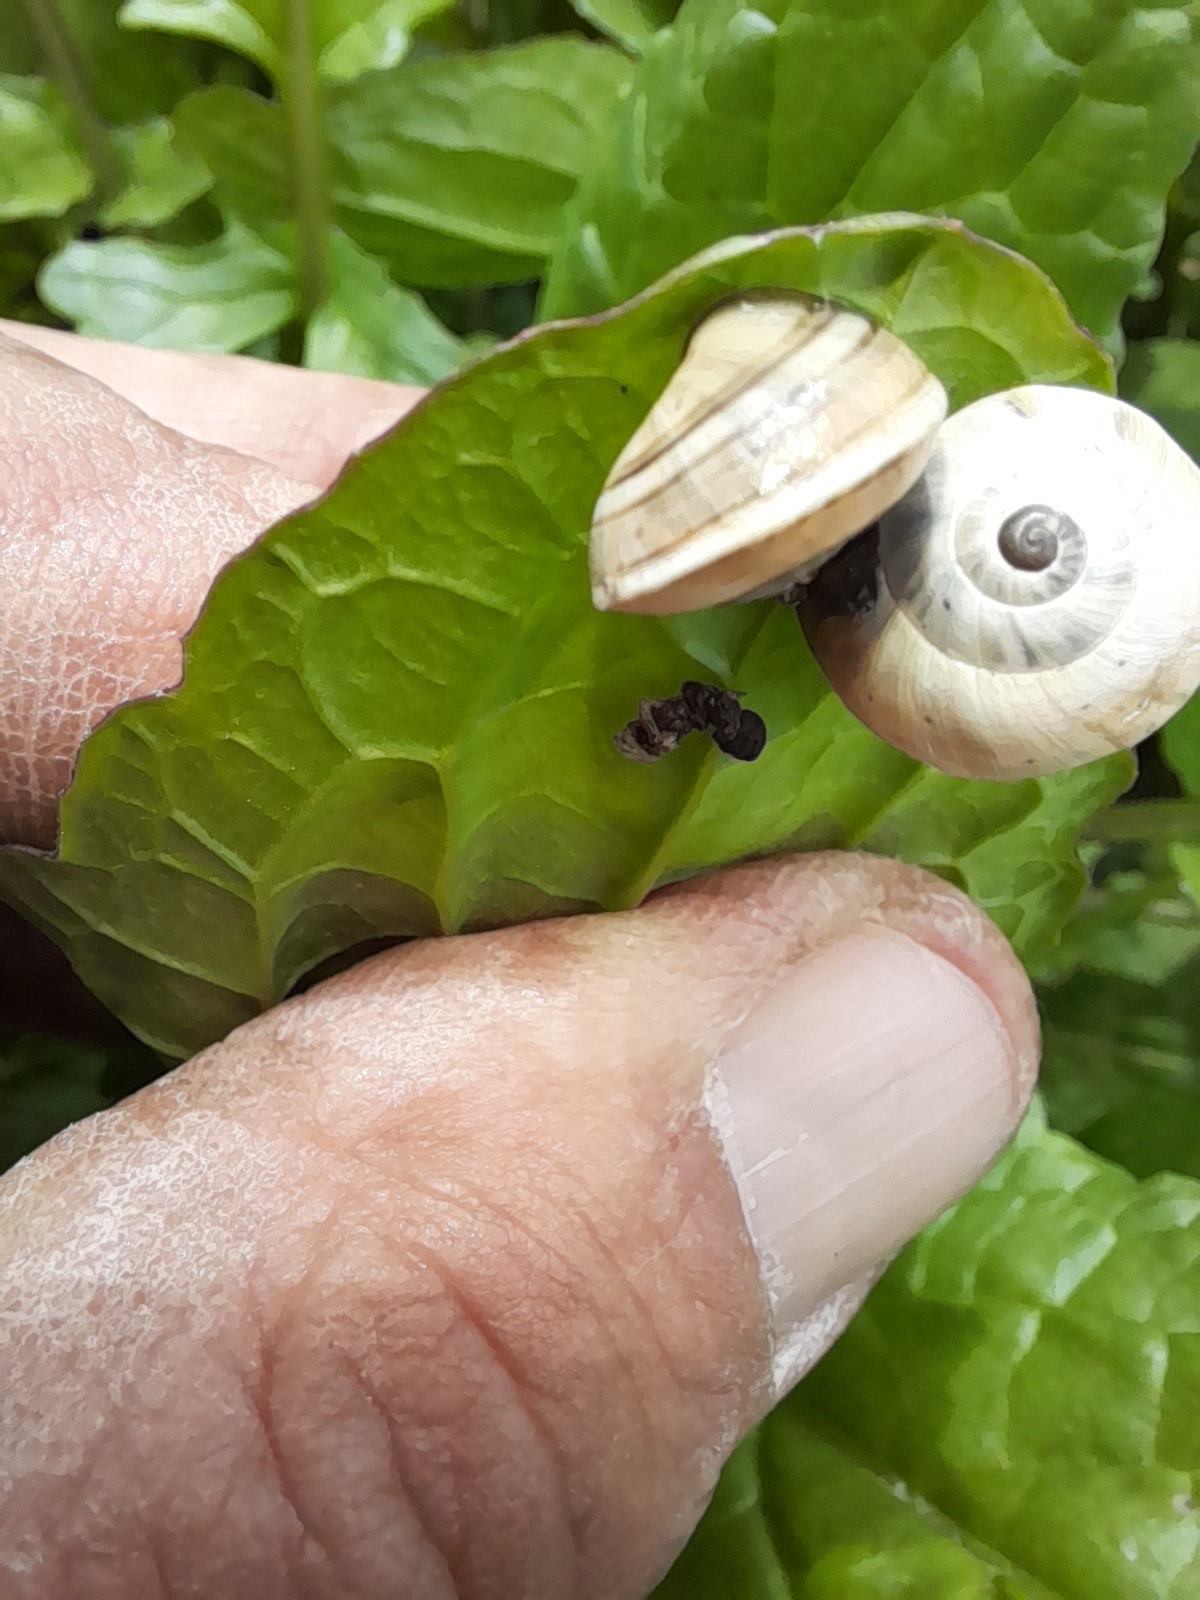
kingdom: Animalia
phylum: Mollusca
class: Gastropoda
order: Stylommatophora
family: Helicidae
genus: Theba
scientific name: Theba pisana
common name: White snail
